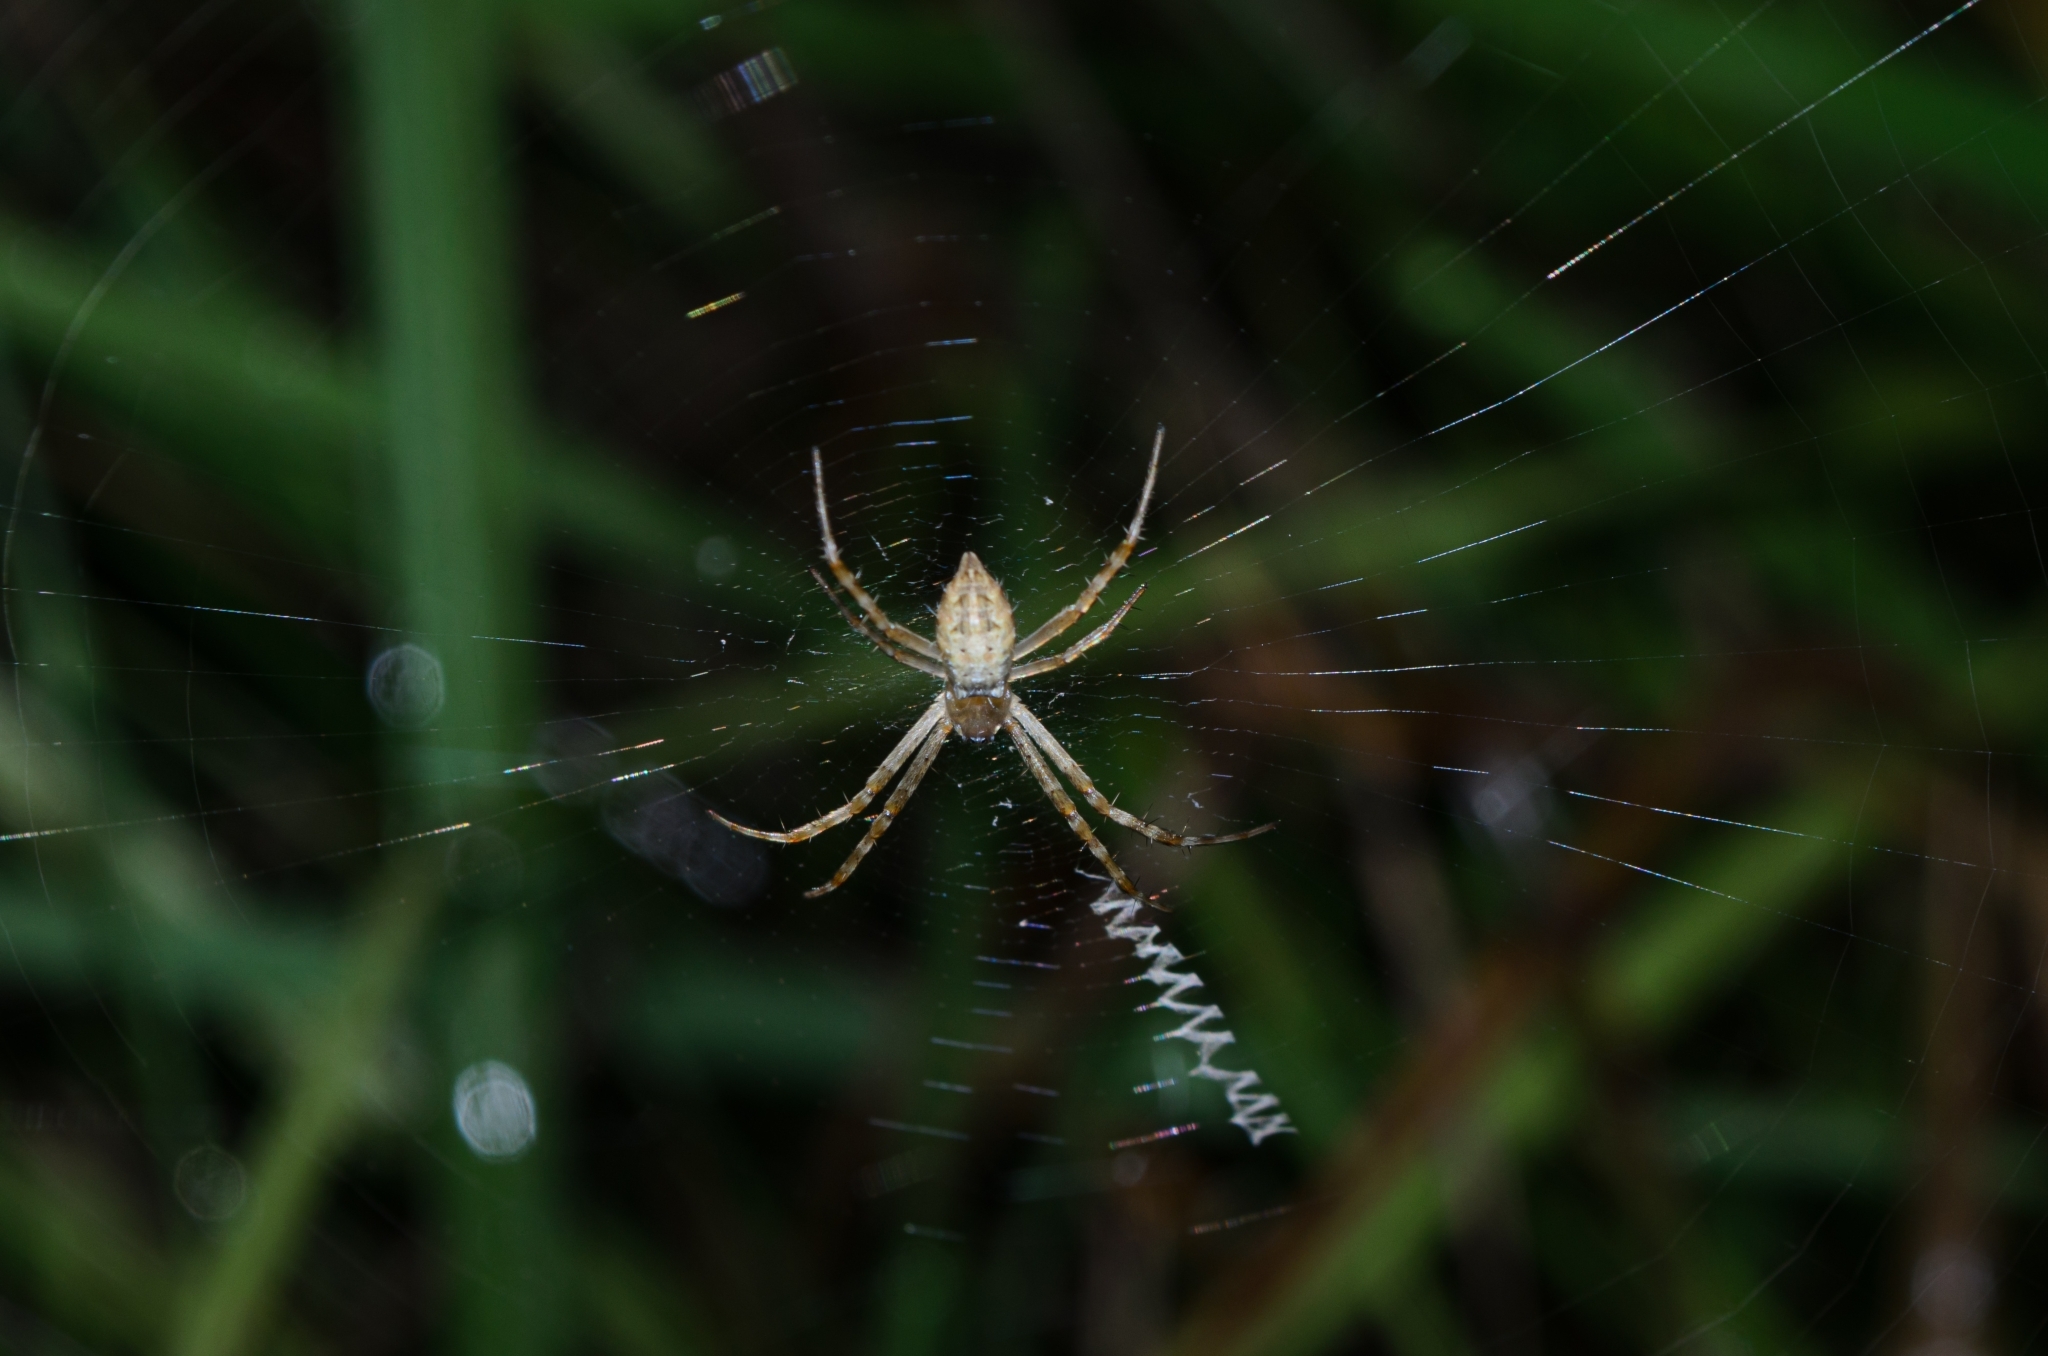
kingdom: Animalia
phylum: Arthropoda
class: Arachnida
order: Araneae
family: Araneidae
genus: Argiope
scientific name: Argiope argentata
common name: Orb weavers
